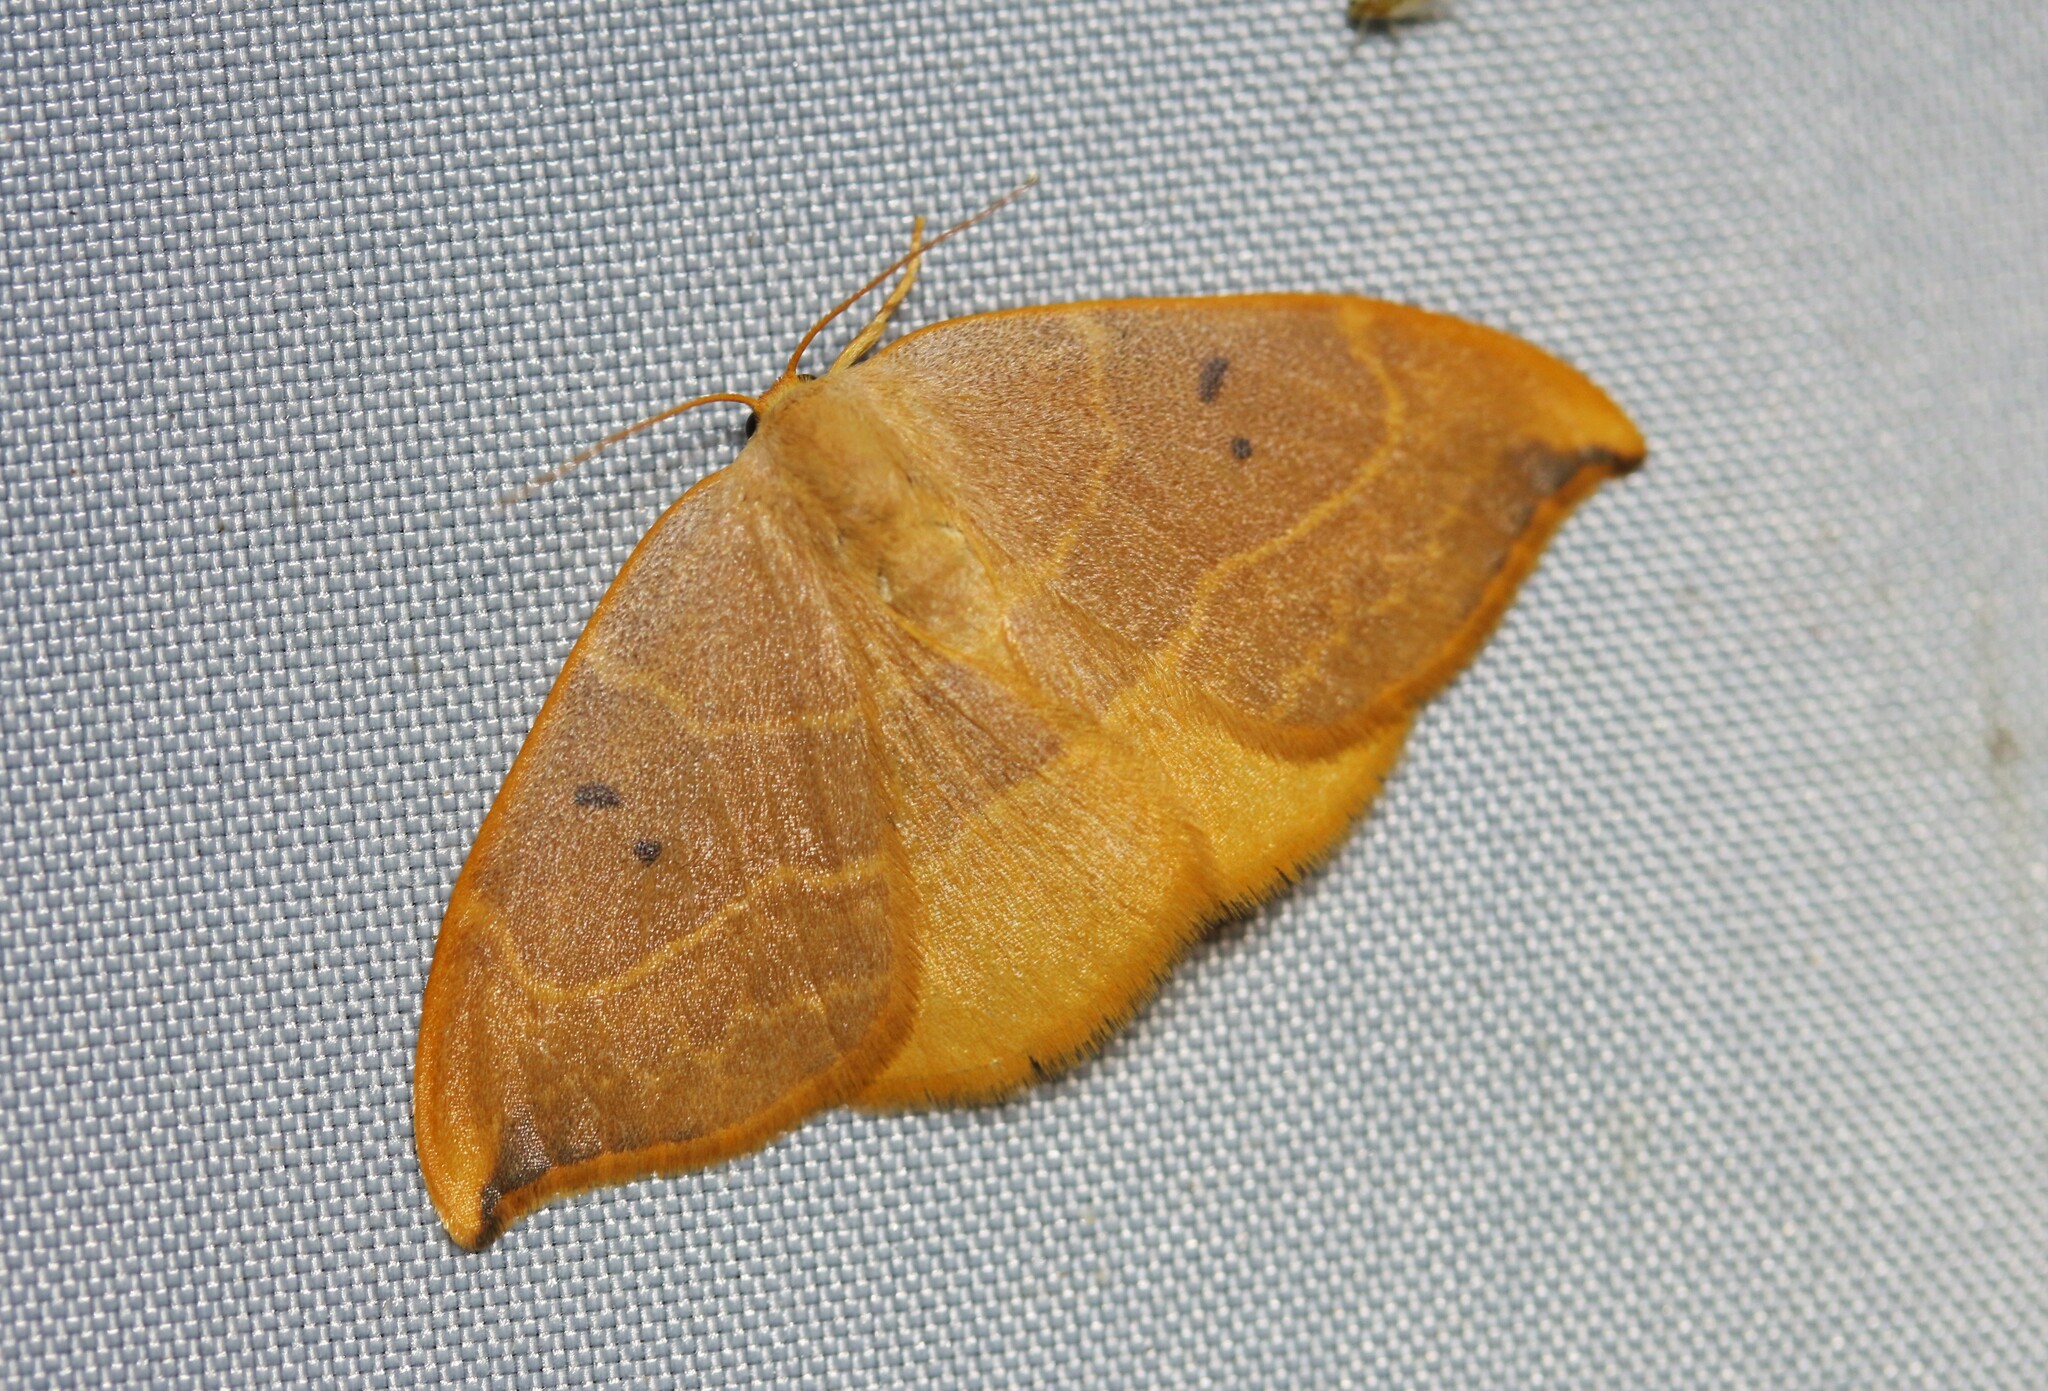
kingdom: Animalia
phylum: Arthropoda
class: Insecta
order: Lepidoptera
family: Drepanidae
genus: Watsonalla
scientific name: Watsonalla binaria
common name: Oak hook-tip
